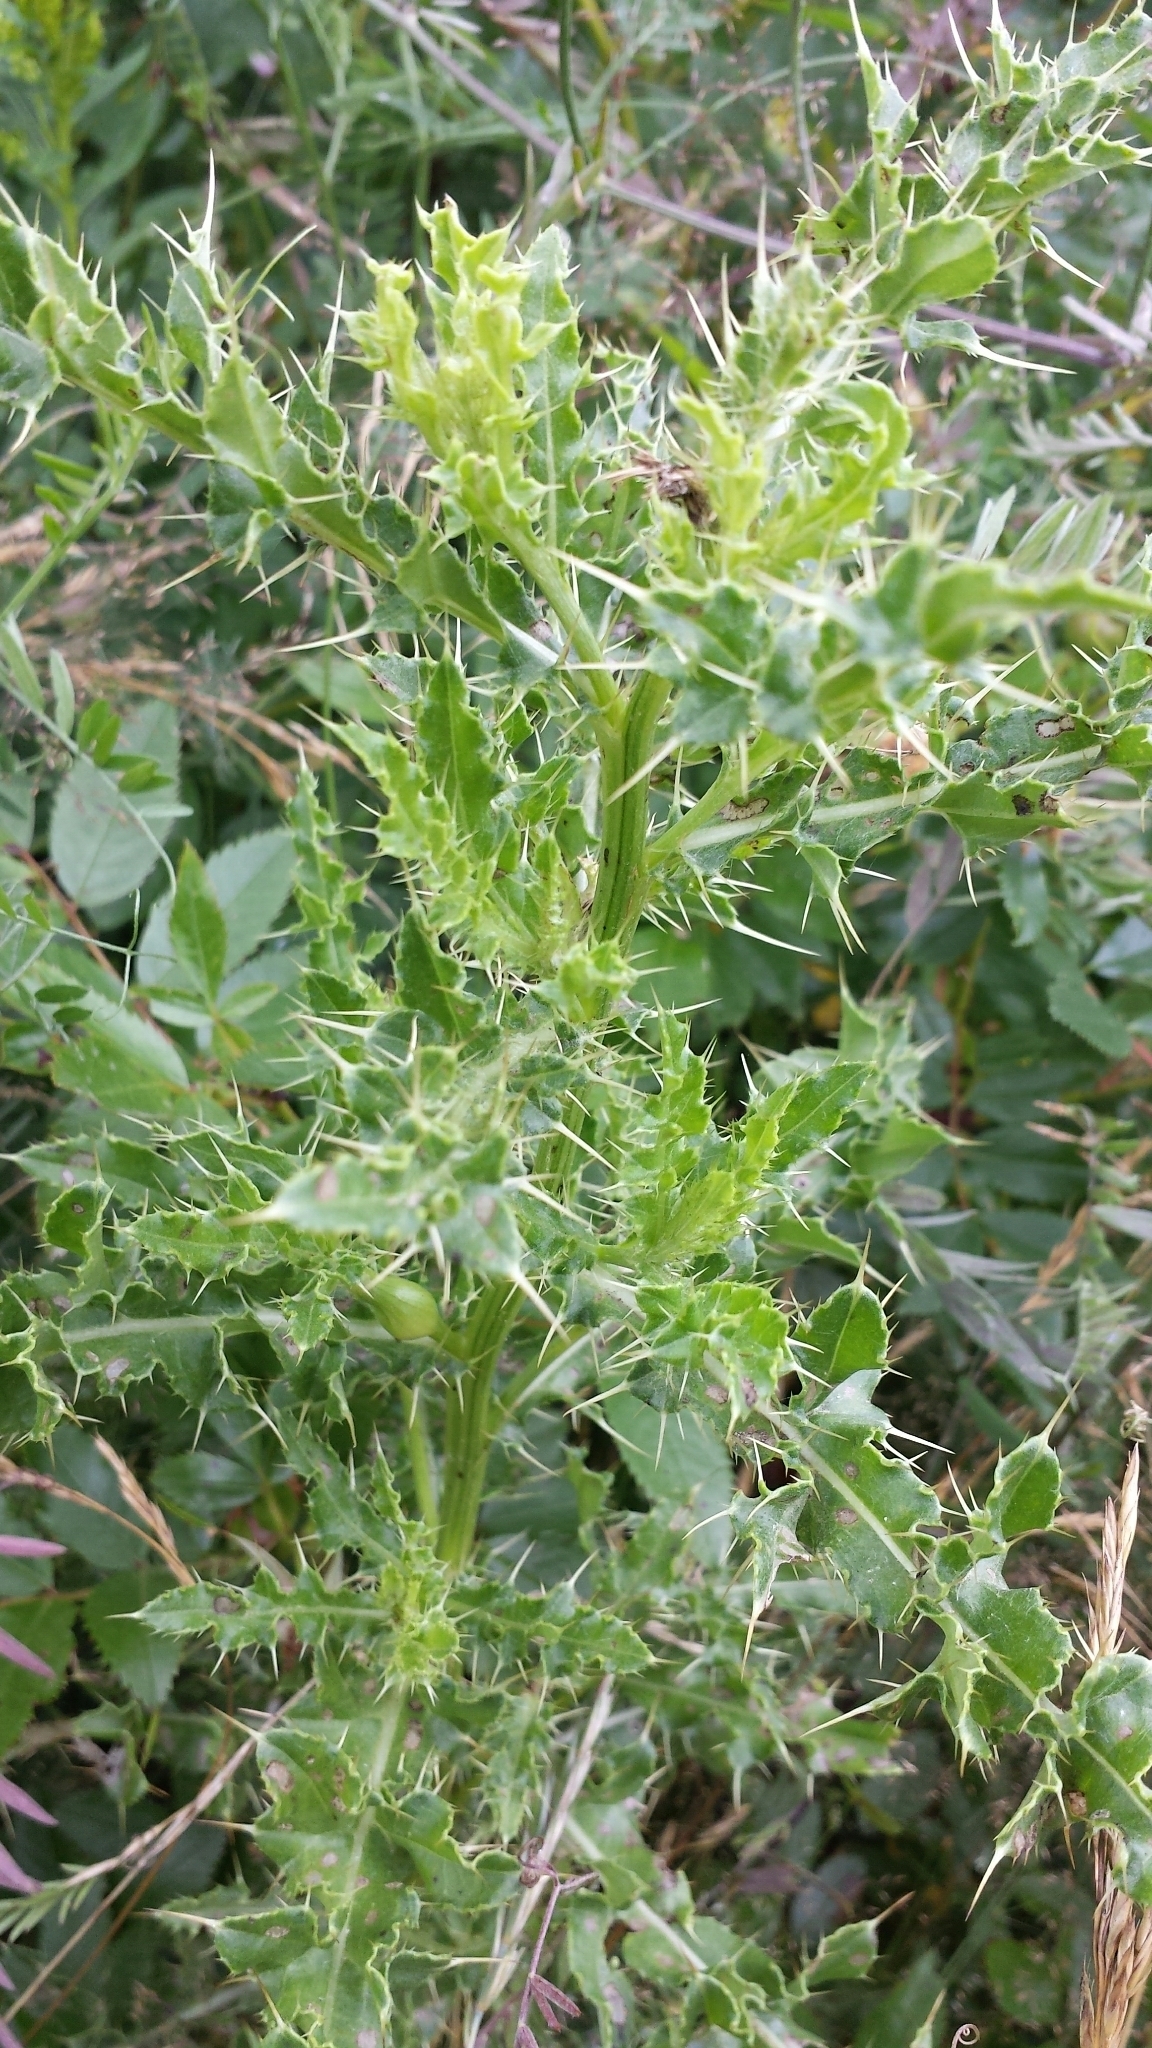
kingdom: Plantae
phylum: Tracheophyta
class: Magnoliopsida
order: Asterales
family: Asteraceae
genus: Cirsium
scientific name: Cirsium arvense
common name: Creeping thistle
